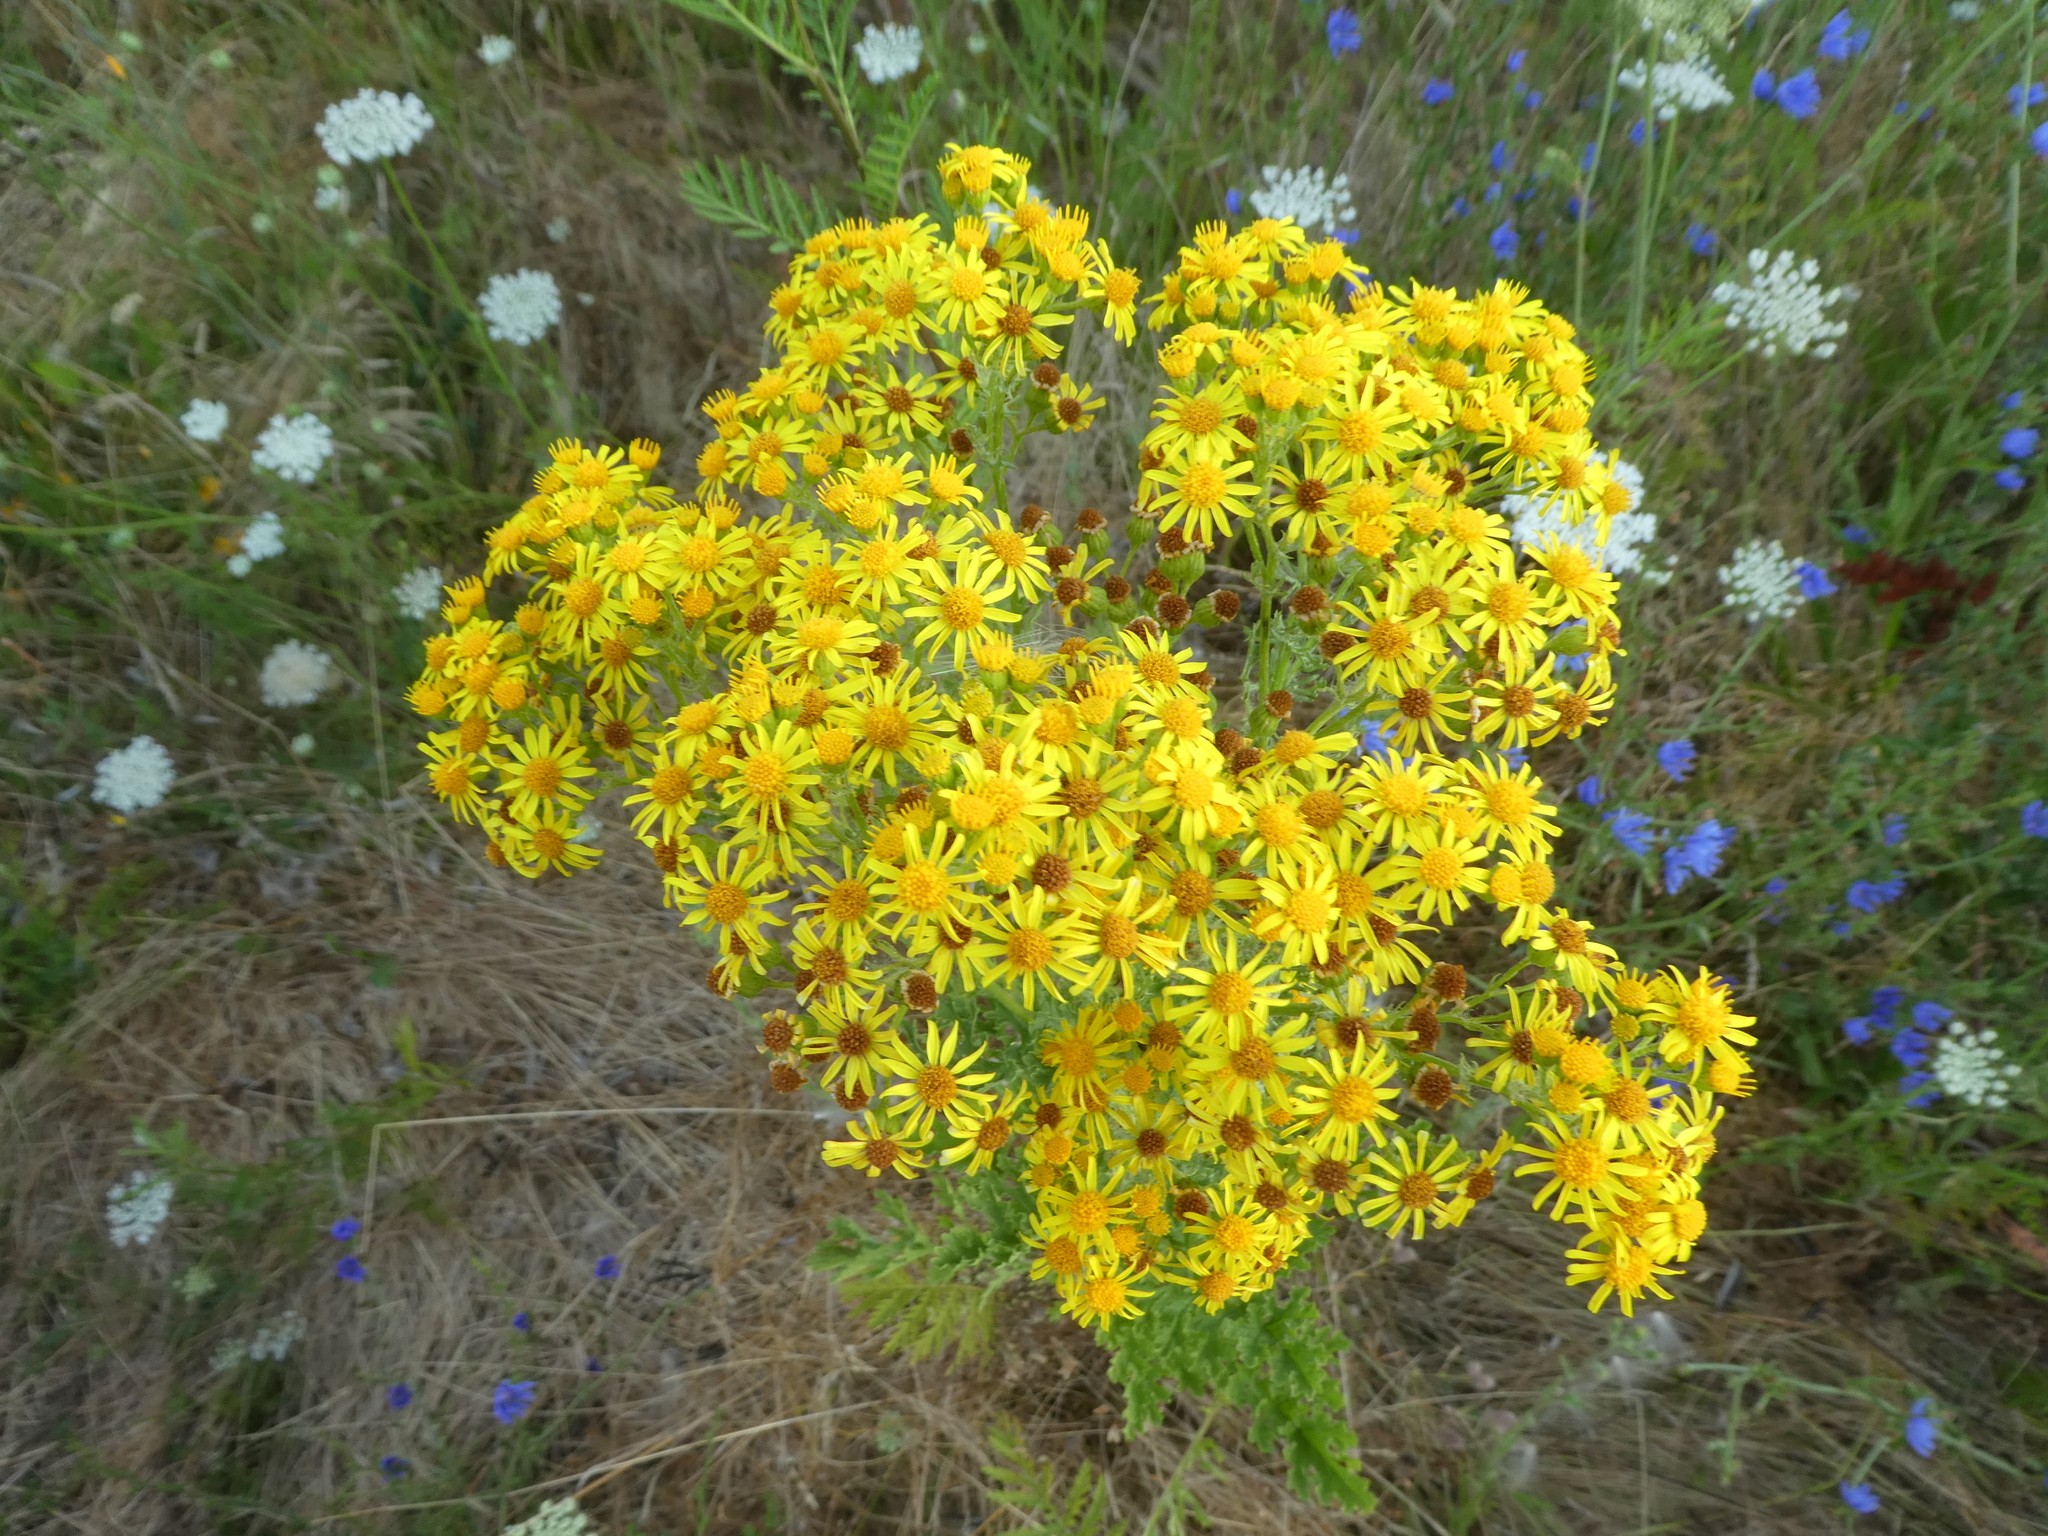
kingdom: Plantae
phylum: Tracheophyta
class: Magnoliopsida
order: Asterales
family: Asteraceae
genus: Jacobaea
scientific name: Jacobaea vulgaris
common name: Stinking willie
